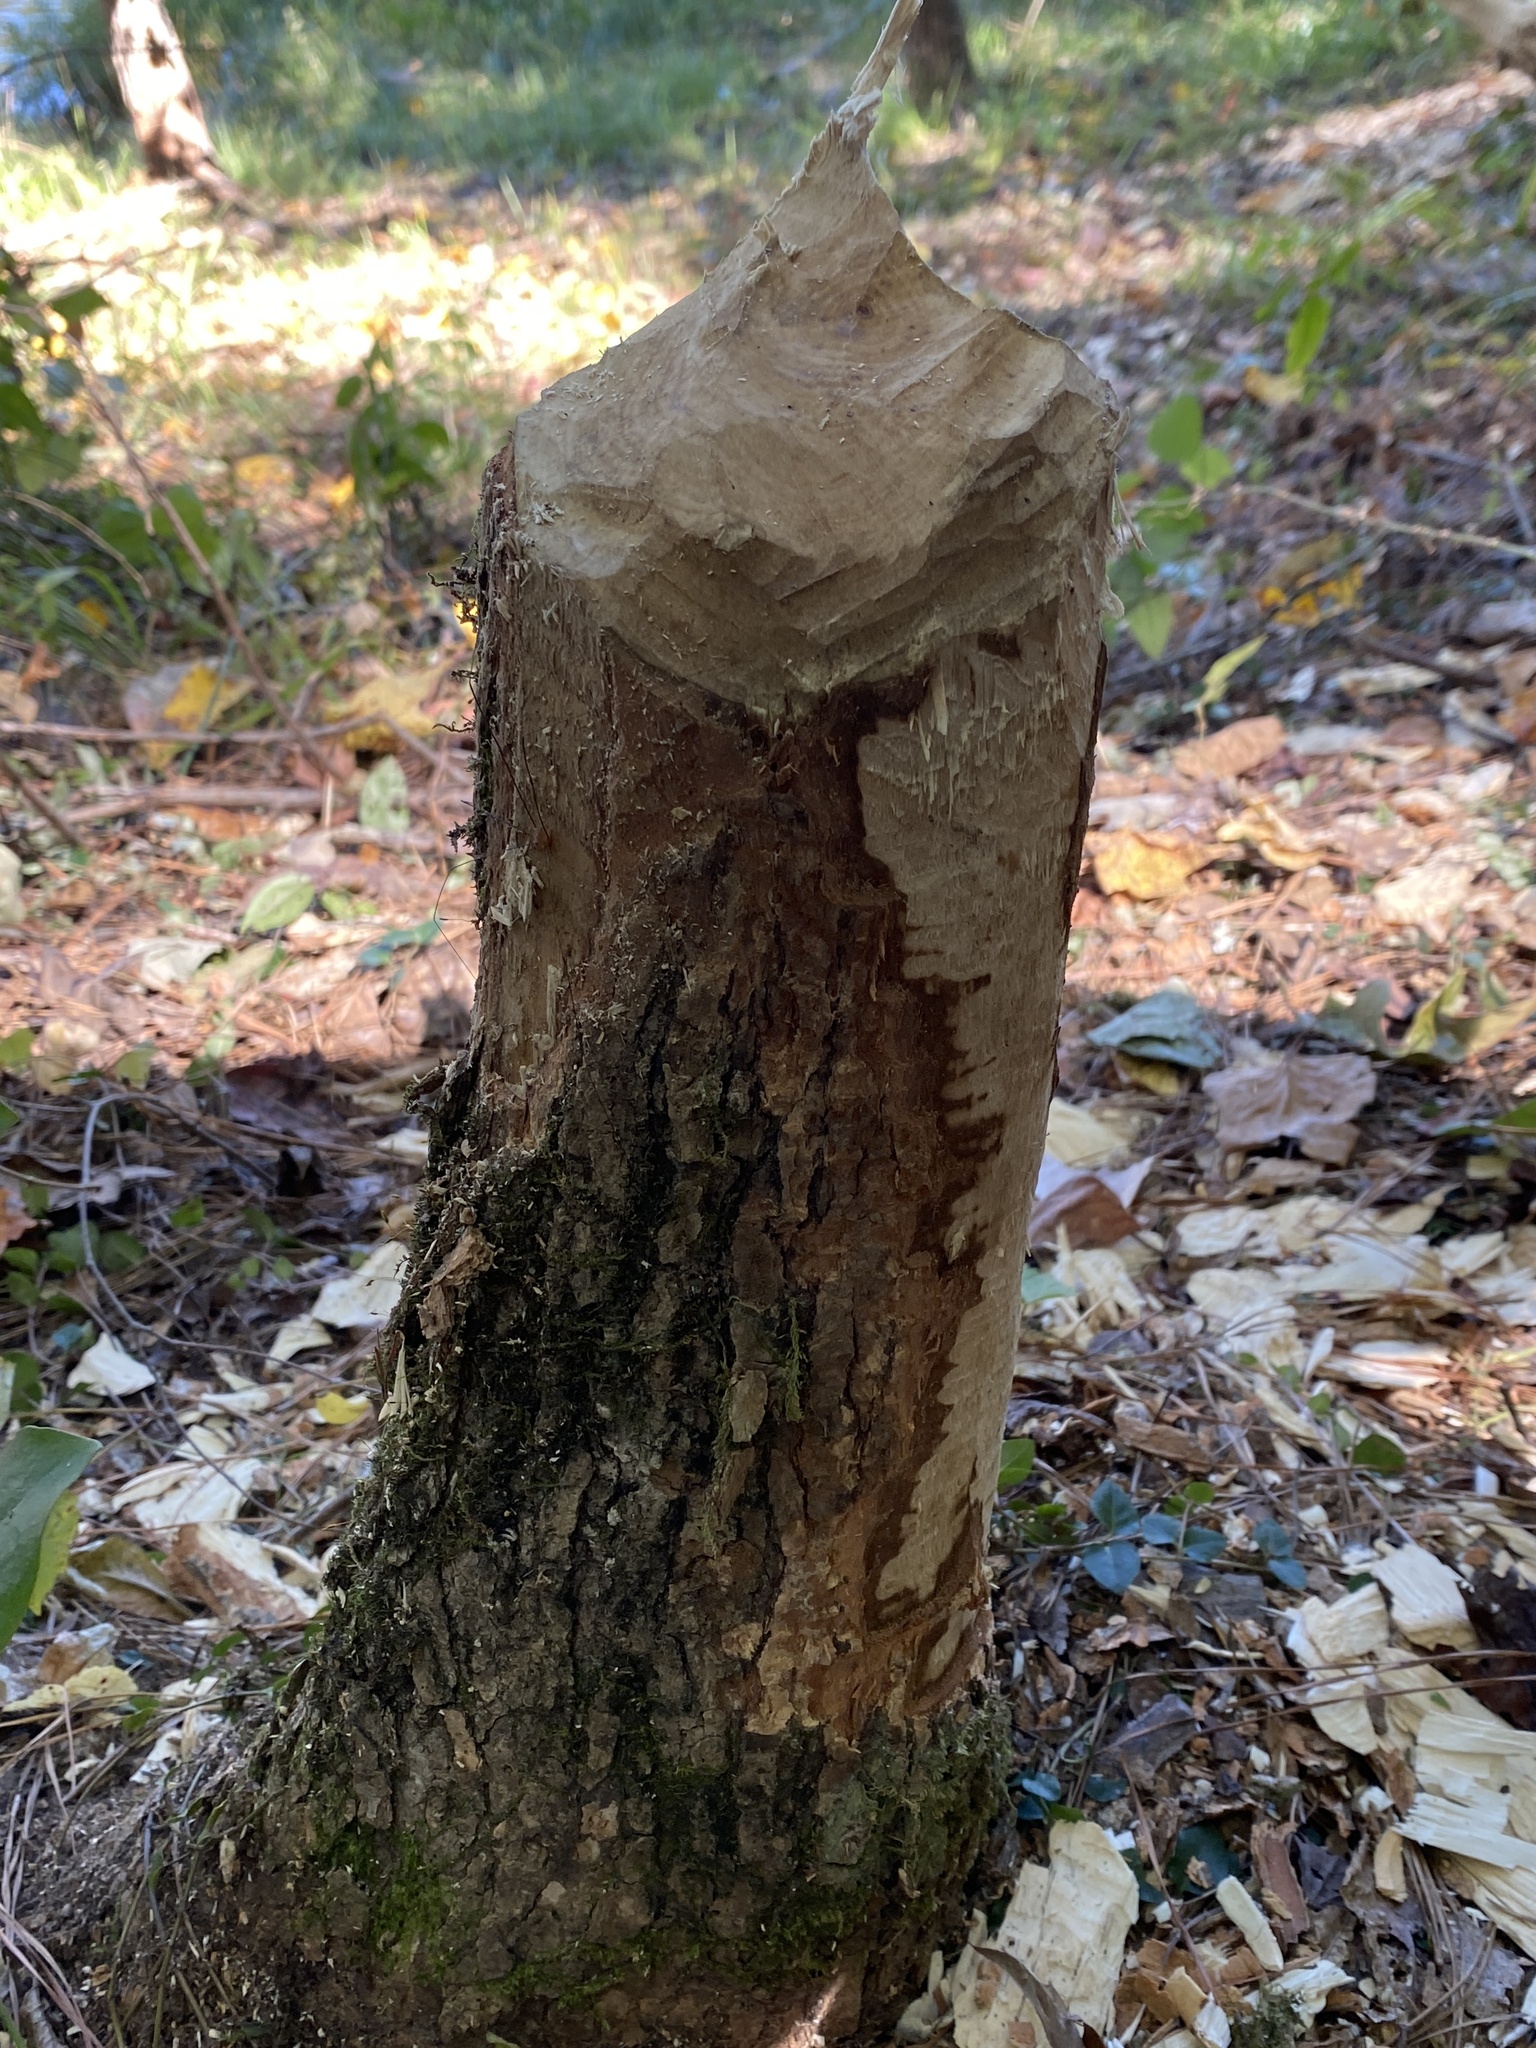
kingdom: Animalia
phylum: Chordata
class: Mammalia
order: Rodentia
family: Castoridae
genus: Castor
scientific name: Castor canadensis
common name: American beaver
